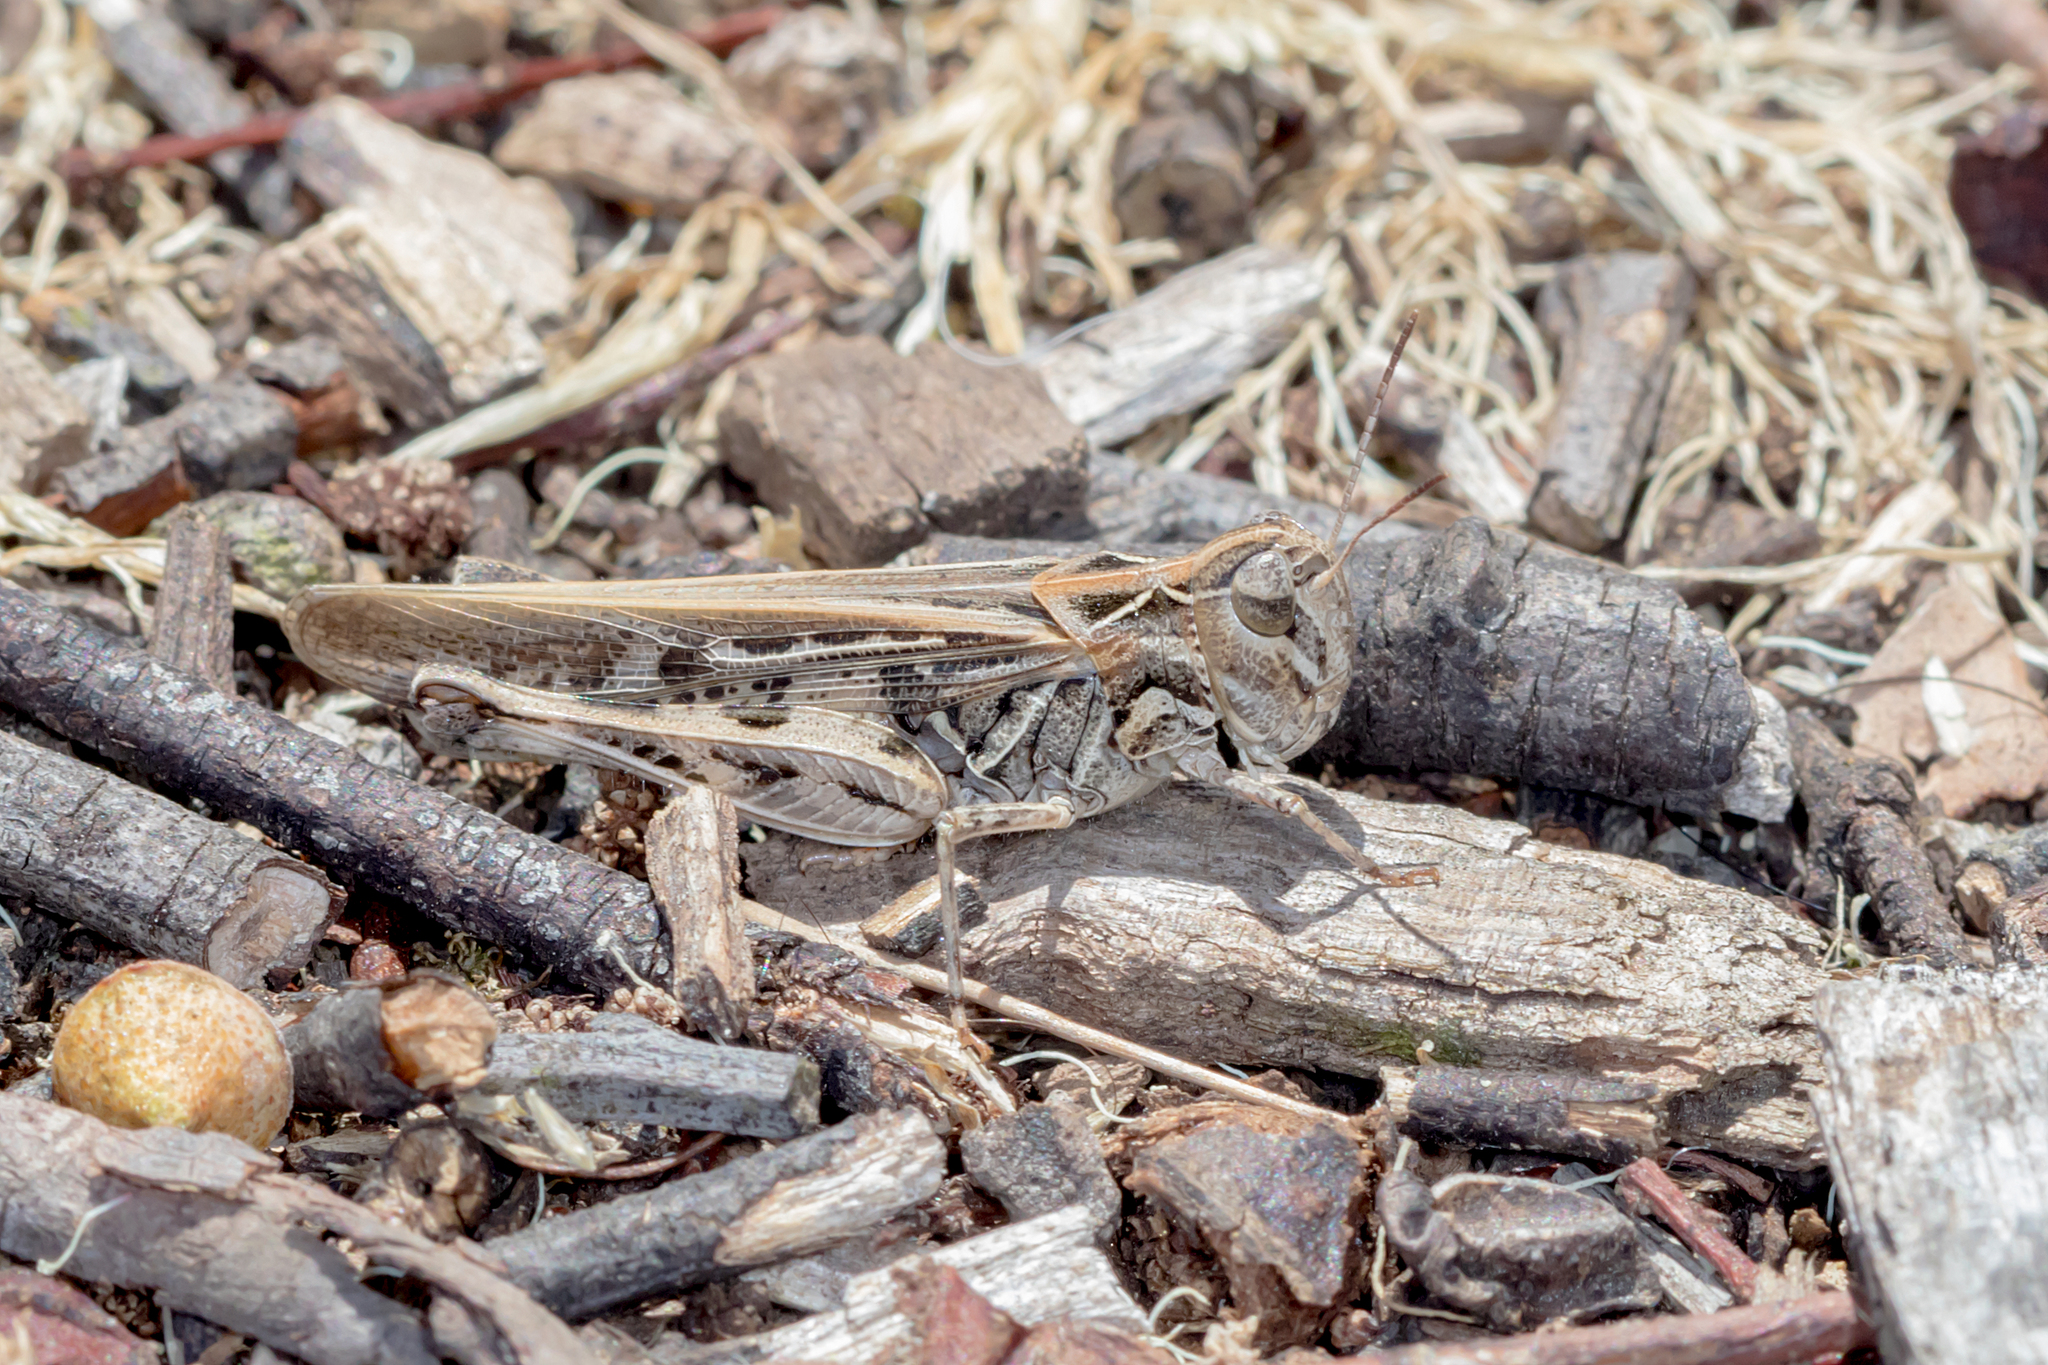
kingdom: Animalia
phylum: Arthropoda
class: Insecta
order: Orthoptera
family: Acrididae
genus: Austroicetes
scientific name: Austroicetes vulgaris
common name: Southeastern austroicetes
